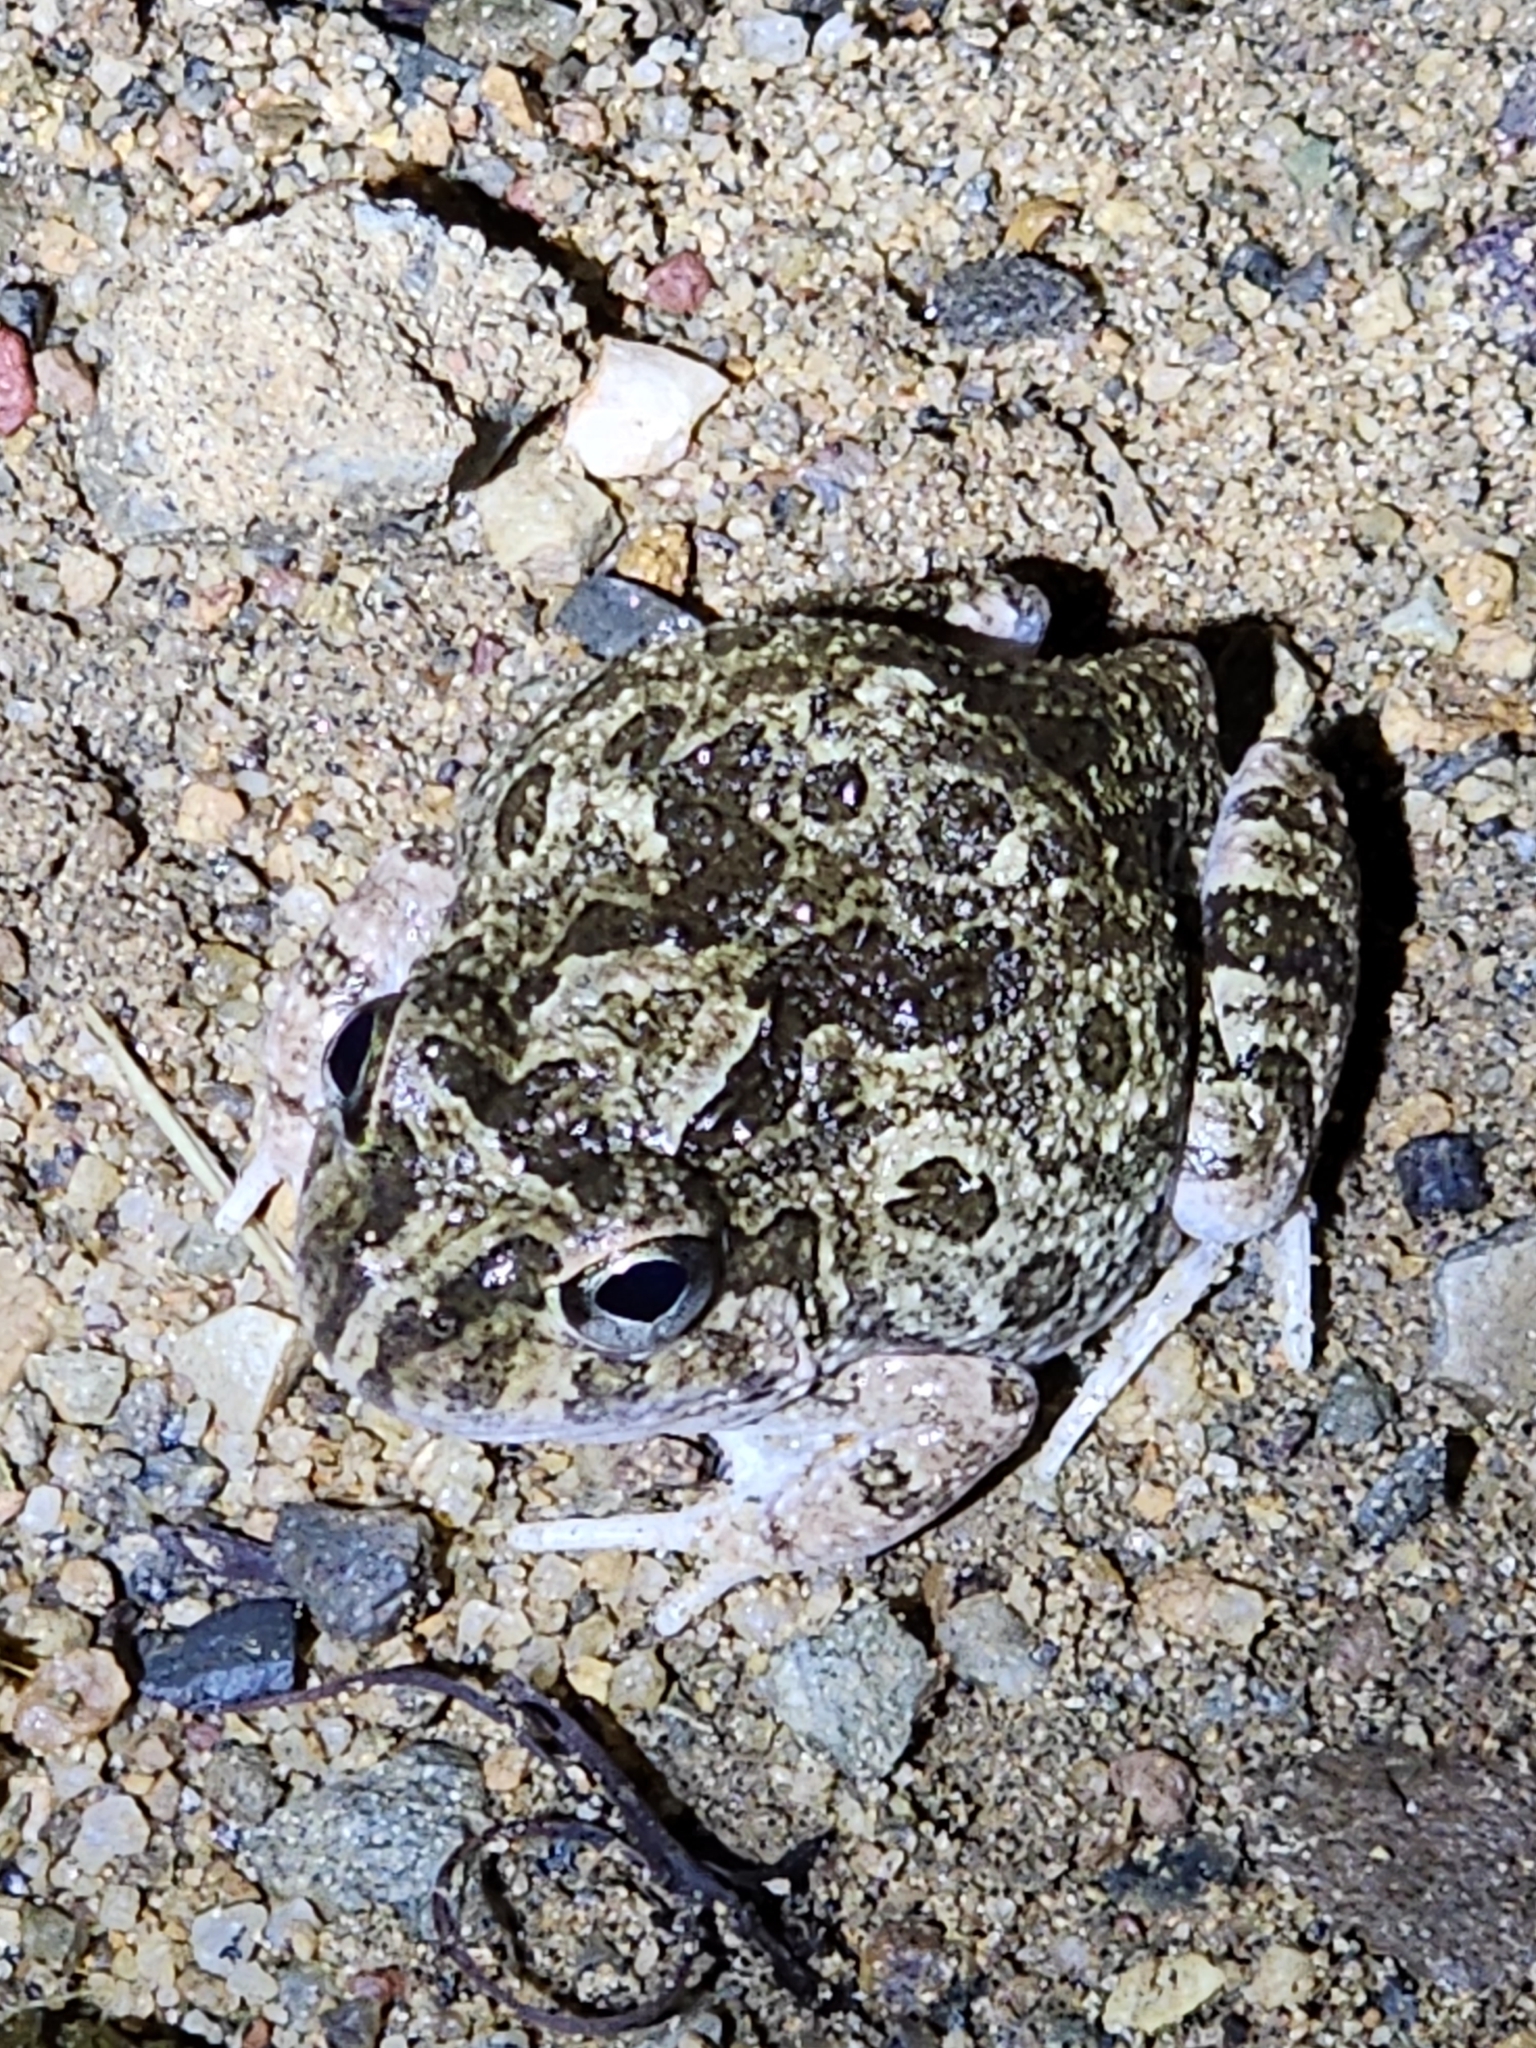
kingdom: Animalia
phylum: Chordata
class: Amphibia
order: Anura
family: Limnodynastidae
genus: Platyplectrum
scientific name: Platyplectrum ornatum
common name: Ornate burrowing frog
